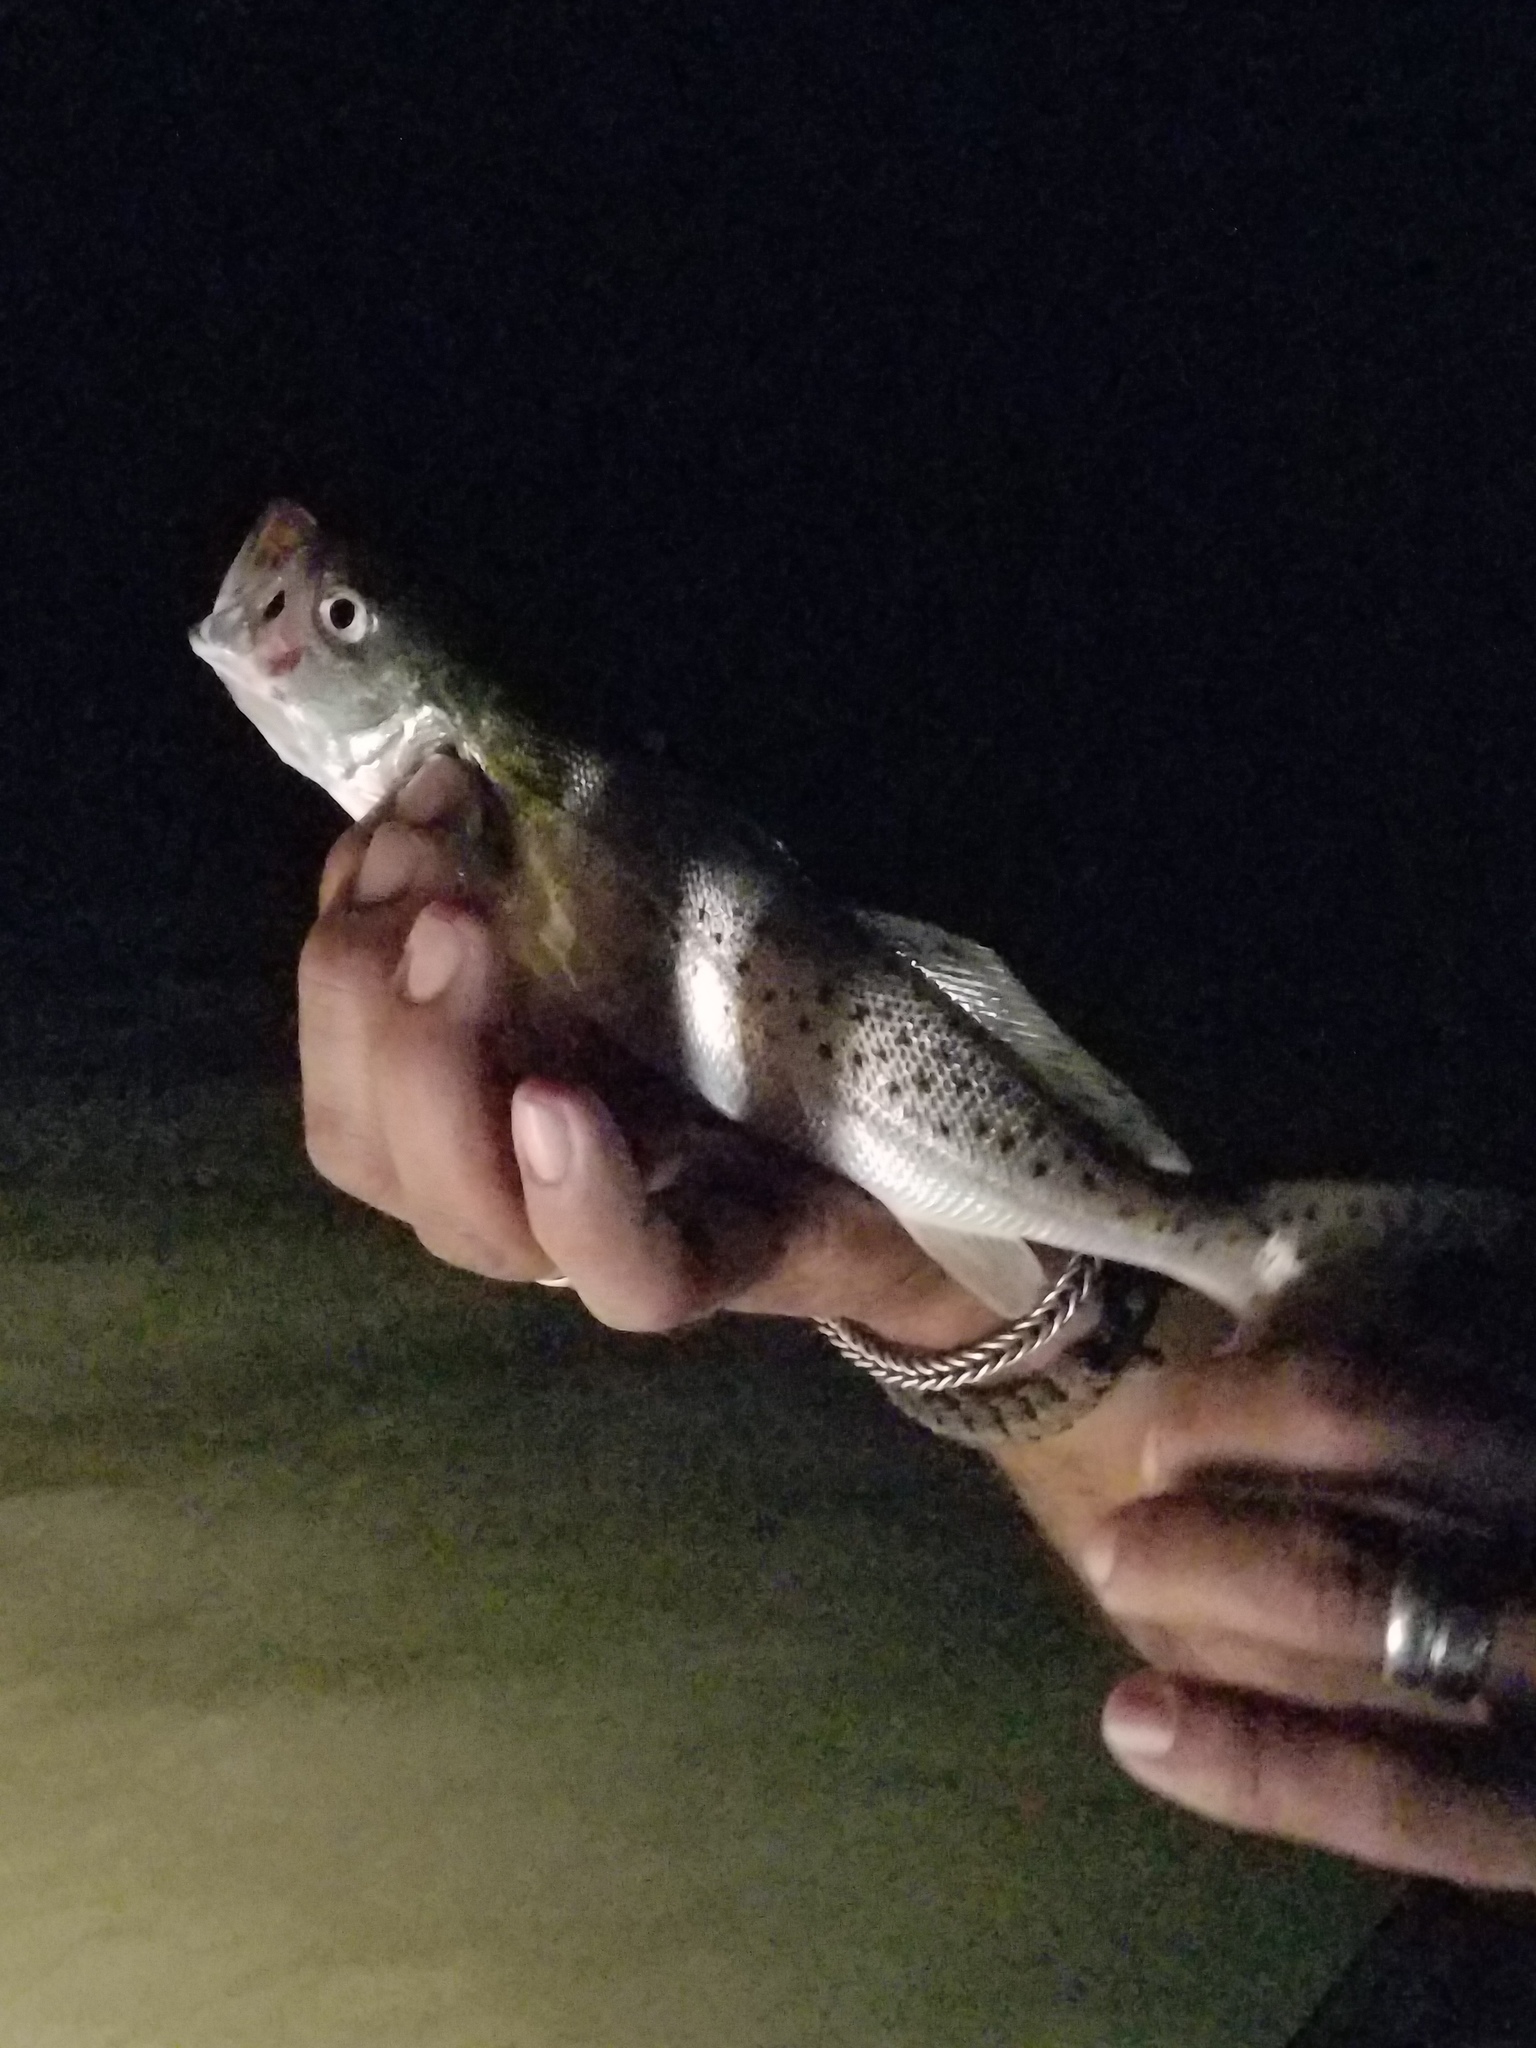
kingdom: Animalia
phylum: Chordata
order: Perciformes
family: Sciaenidae
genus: Cynoscion
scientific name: Cynoscion nebulosus
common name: Spotted seatrout
